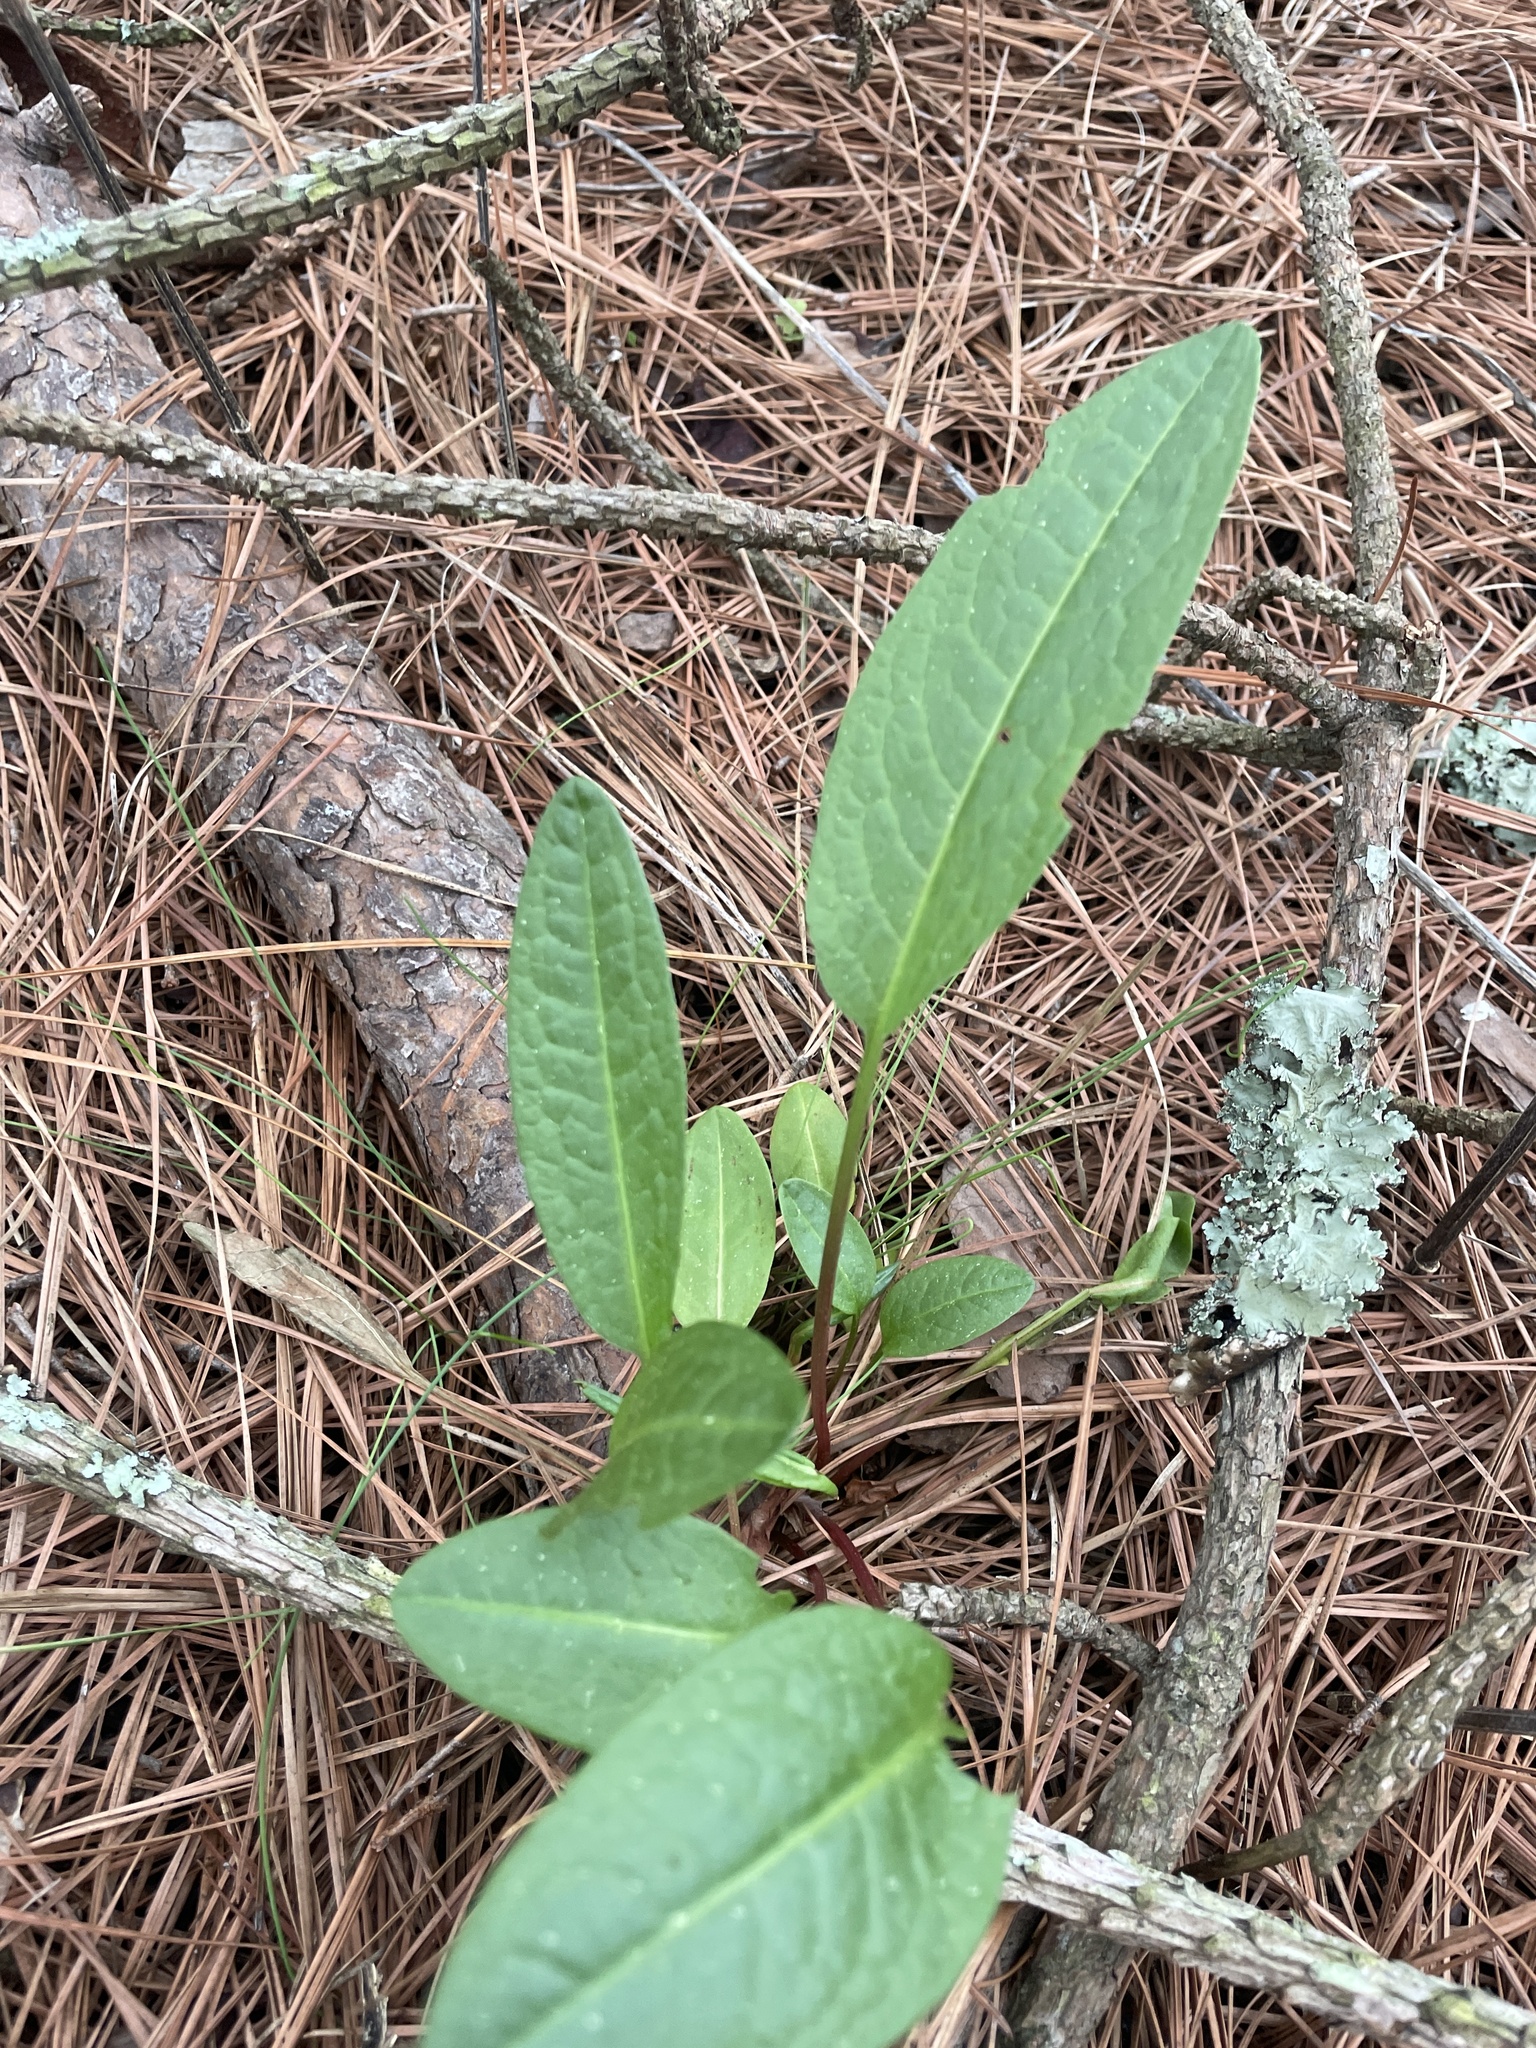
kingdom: Plantae
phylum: Tracheophyta
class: Magnoliopsida
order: Asterales
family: Asteraceae
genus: Packera
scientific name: Packera anonyma
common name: Small ragwort
